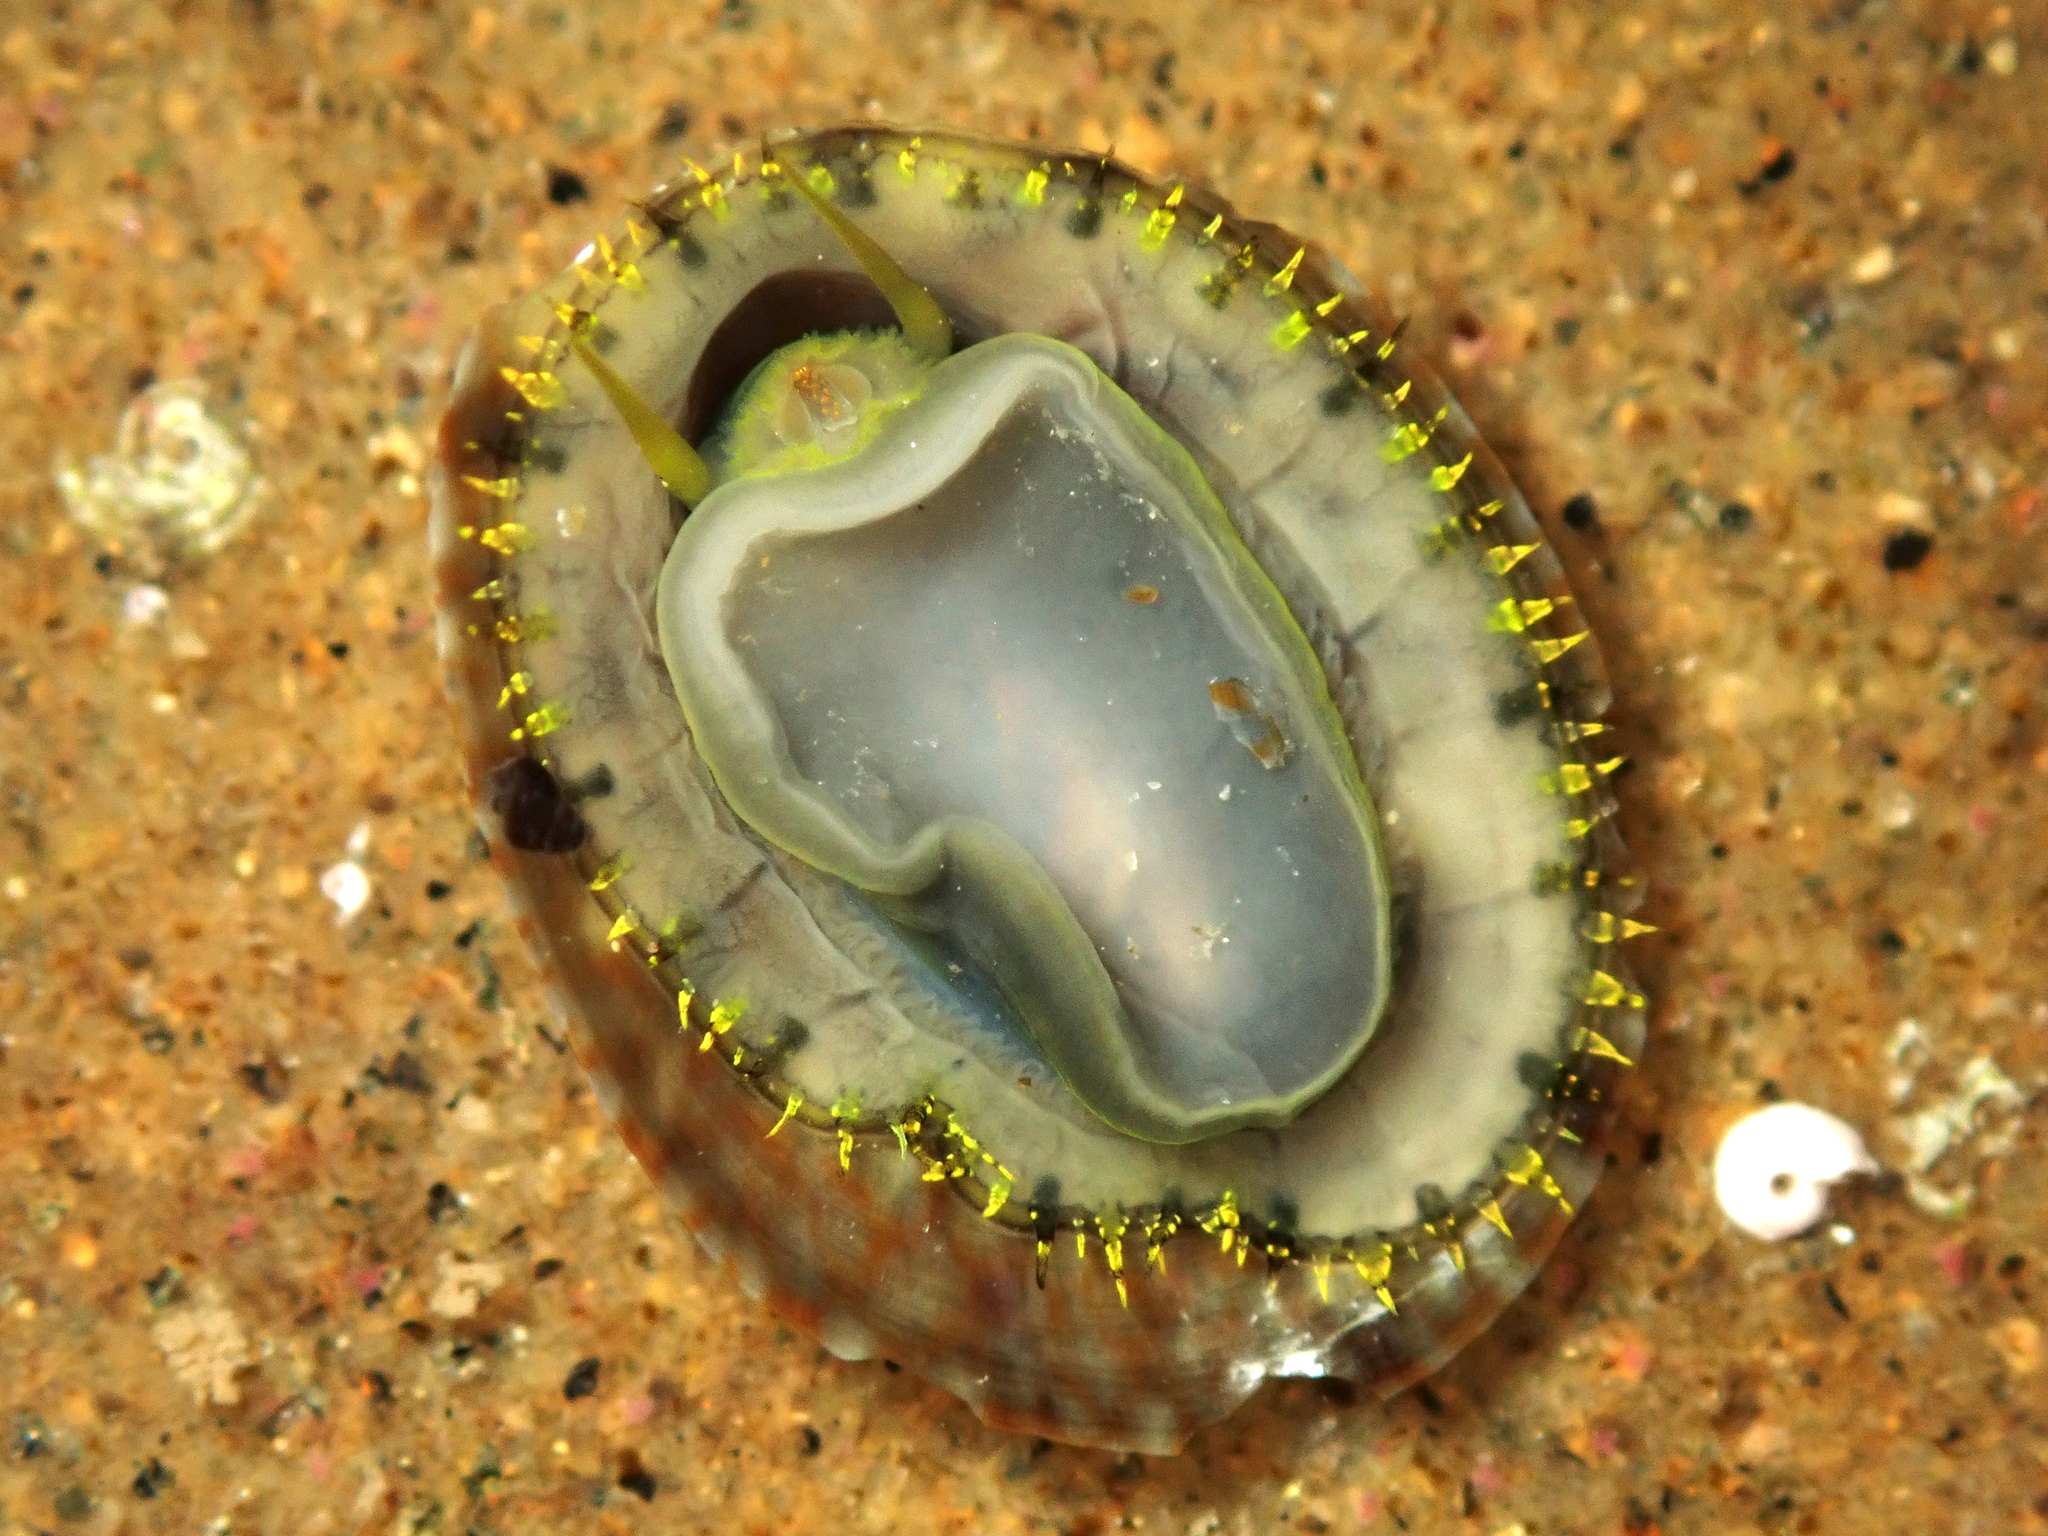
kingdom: Animalia
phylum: Mollusca
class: Gastropoda
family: Nacellidae
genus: Cellana
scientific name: Cellana radians
